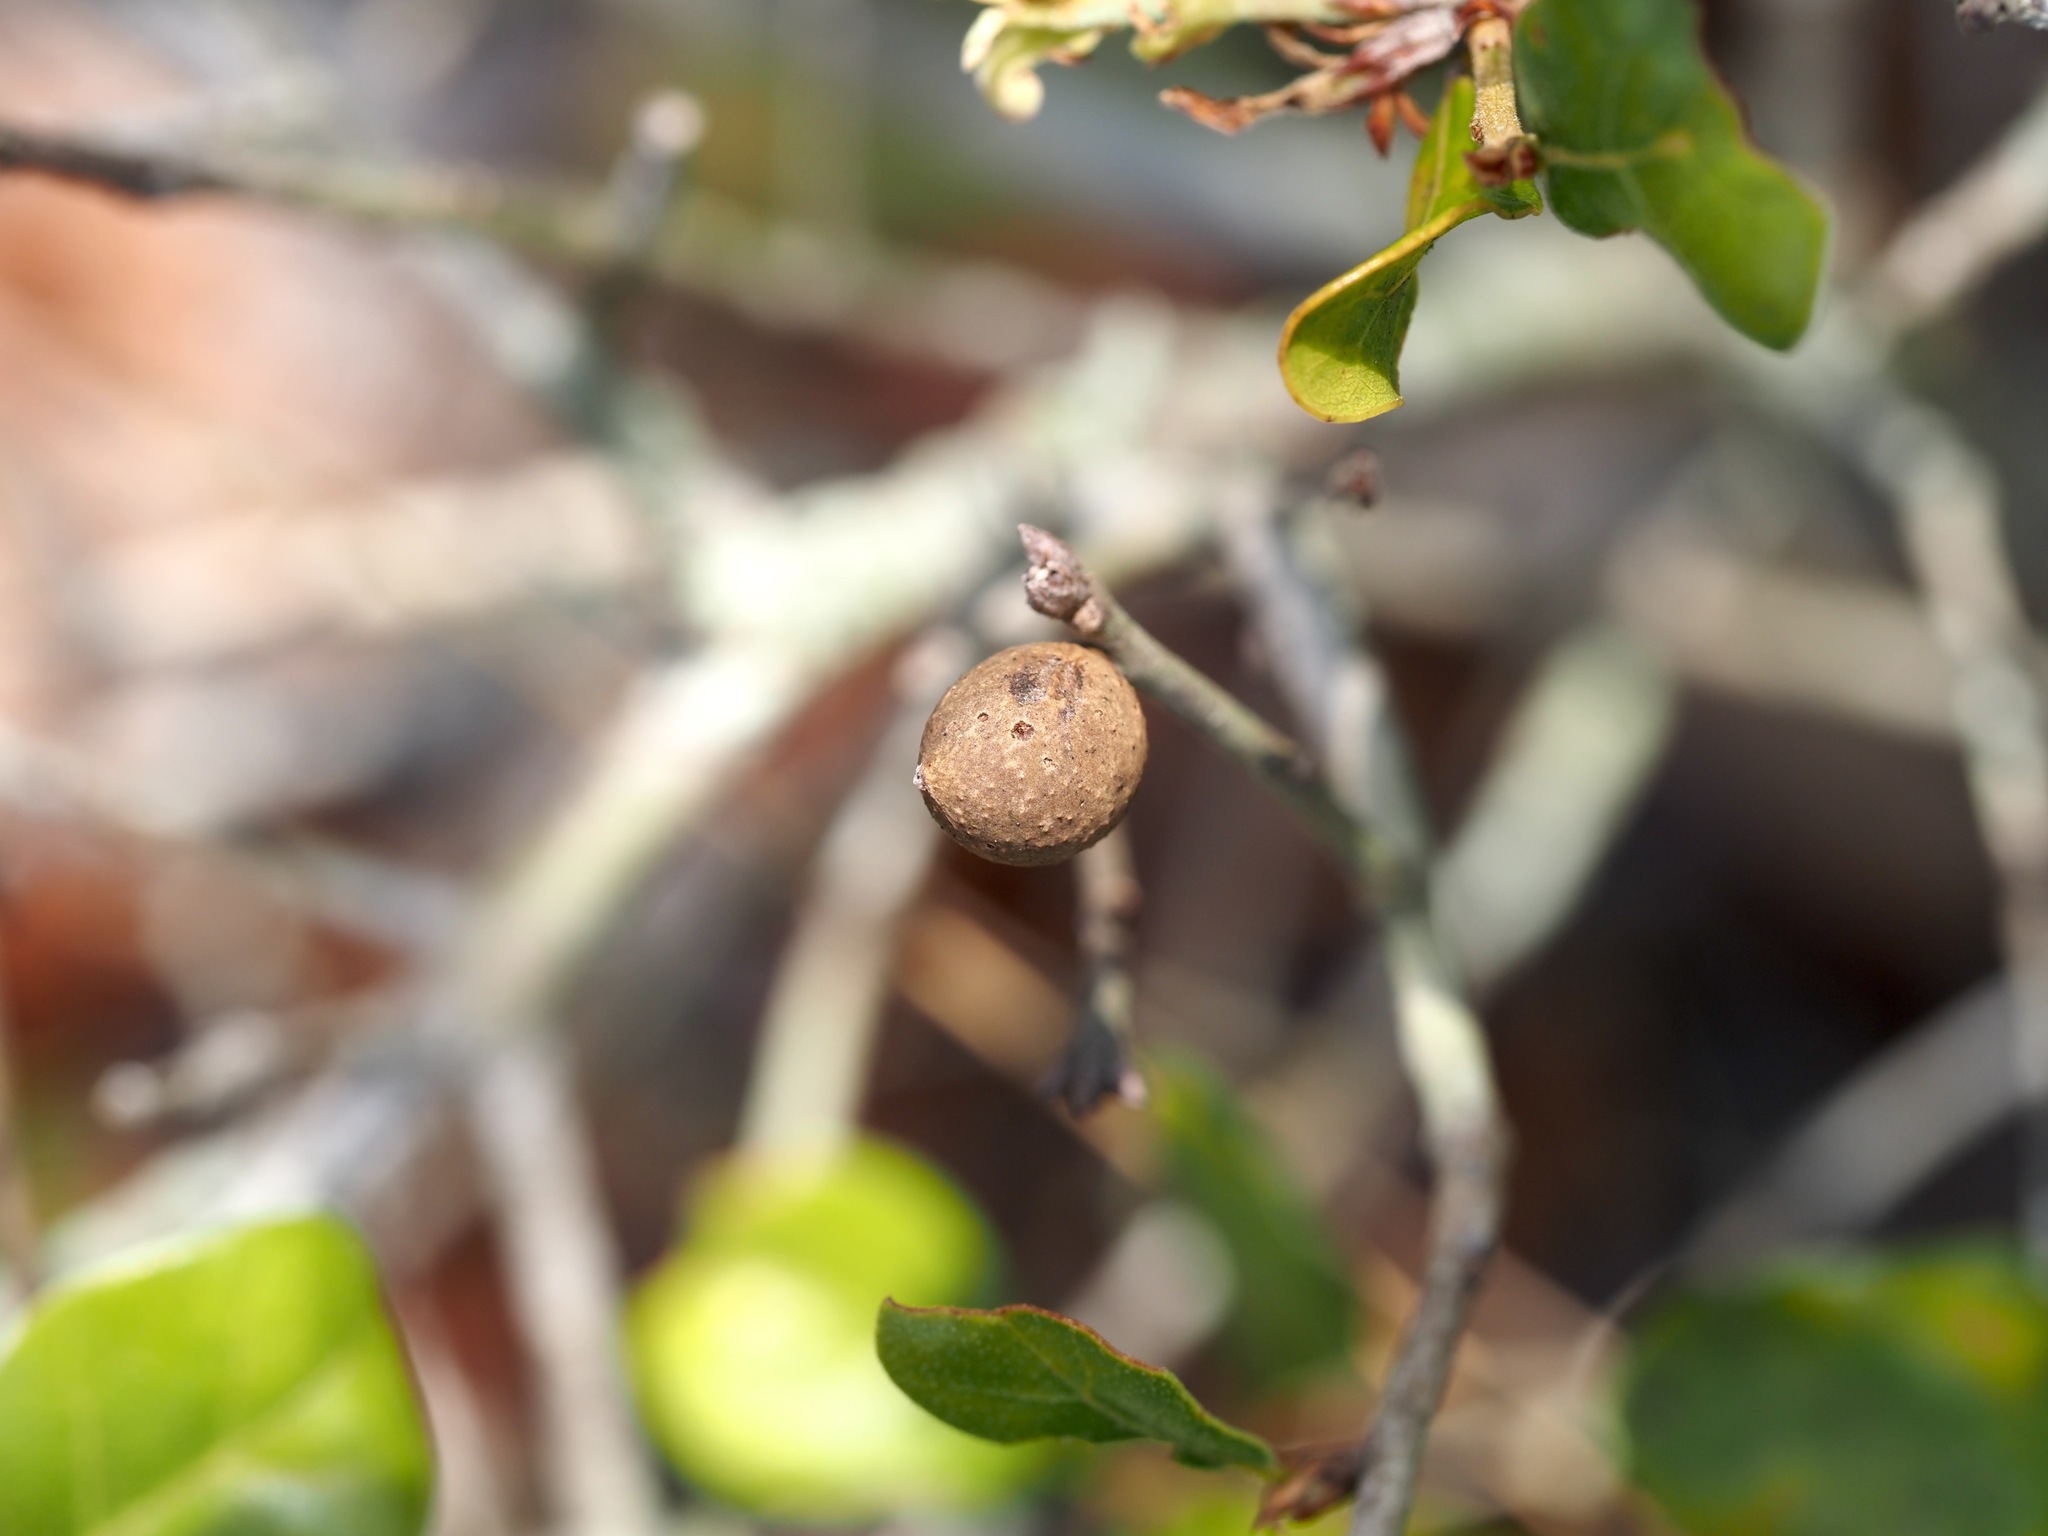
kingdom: Animalia
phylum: Arthropoda
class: Insecta
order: Hymenoptera
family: Cynipidae
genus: Amphibolips
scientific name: Amphibolips
